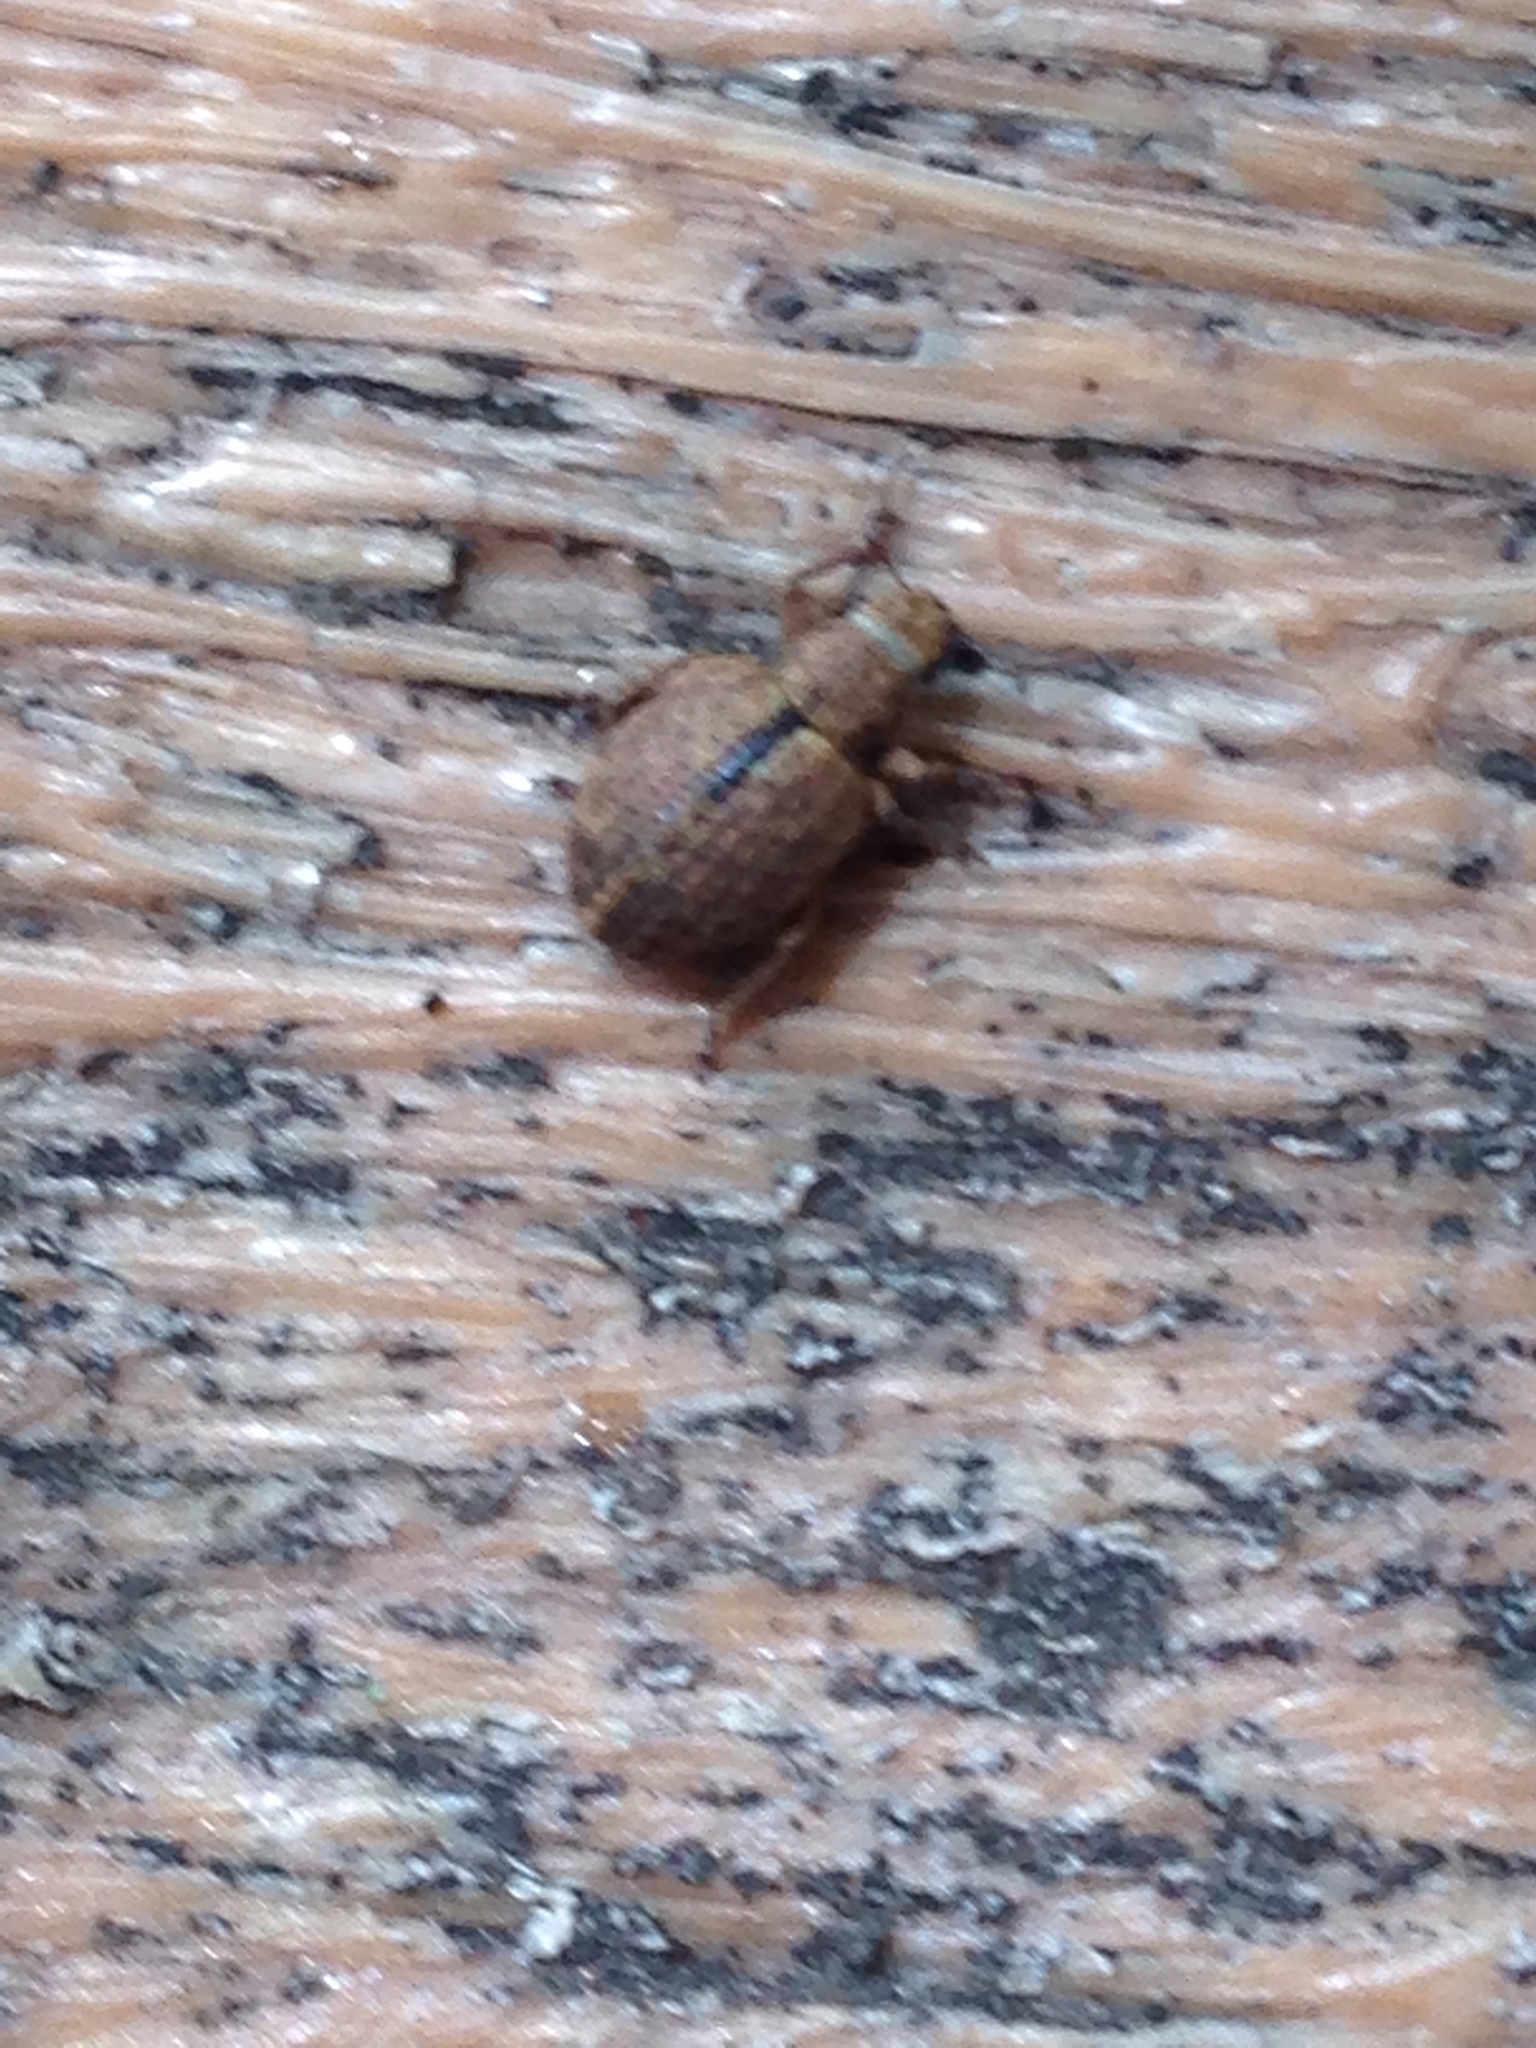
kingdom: Animalia
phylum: Arthropoda
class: Insecta
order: Coleoptera
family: Curculionidae
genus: Strophosoma
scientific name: Strophosoma melanogrammum
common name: Weevil
